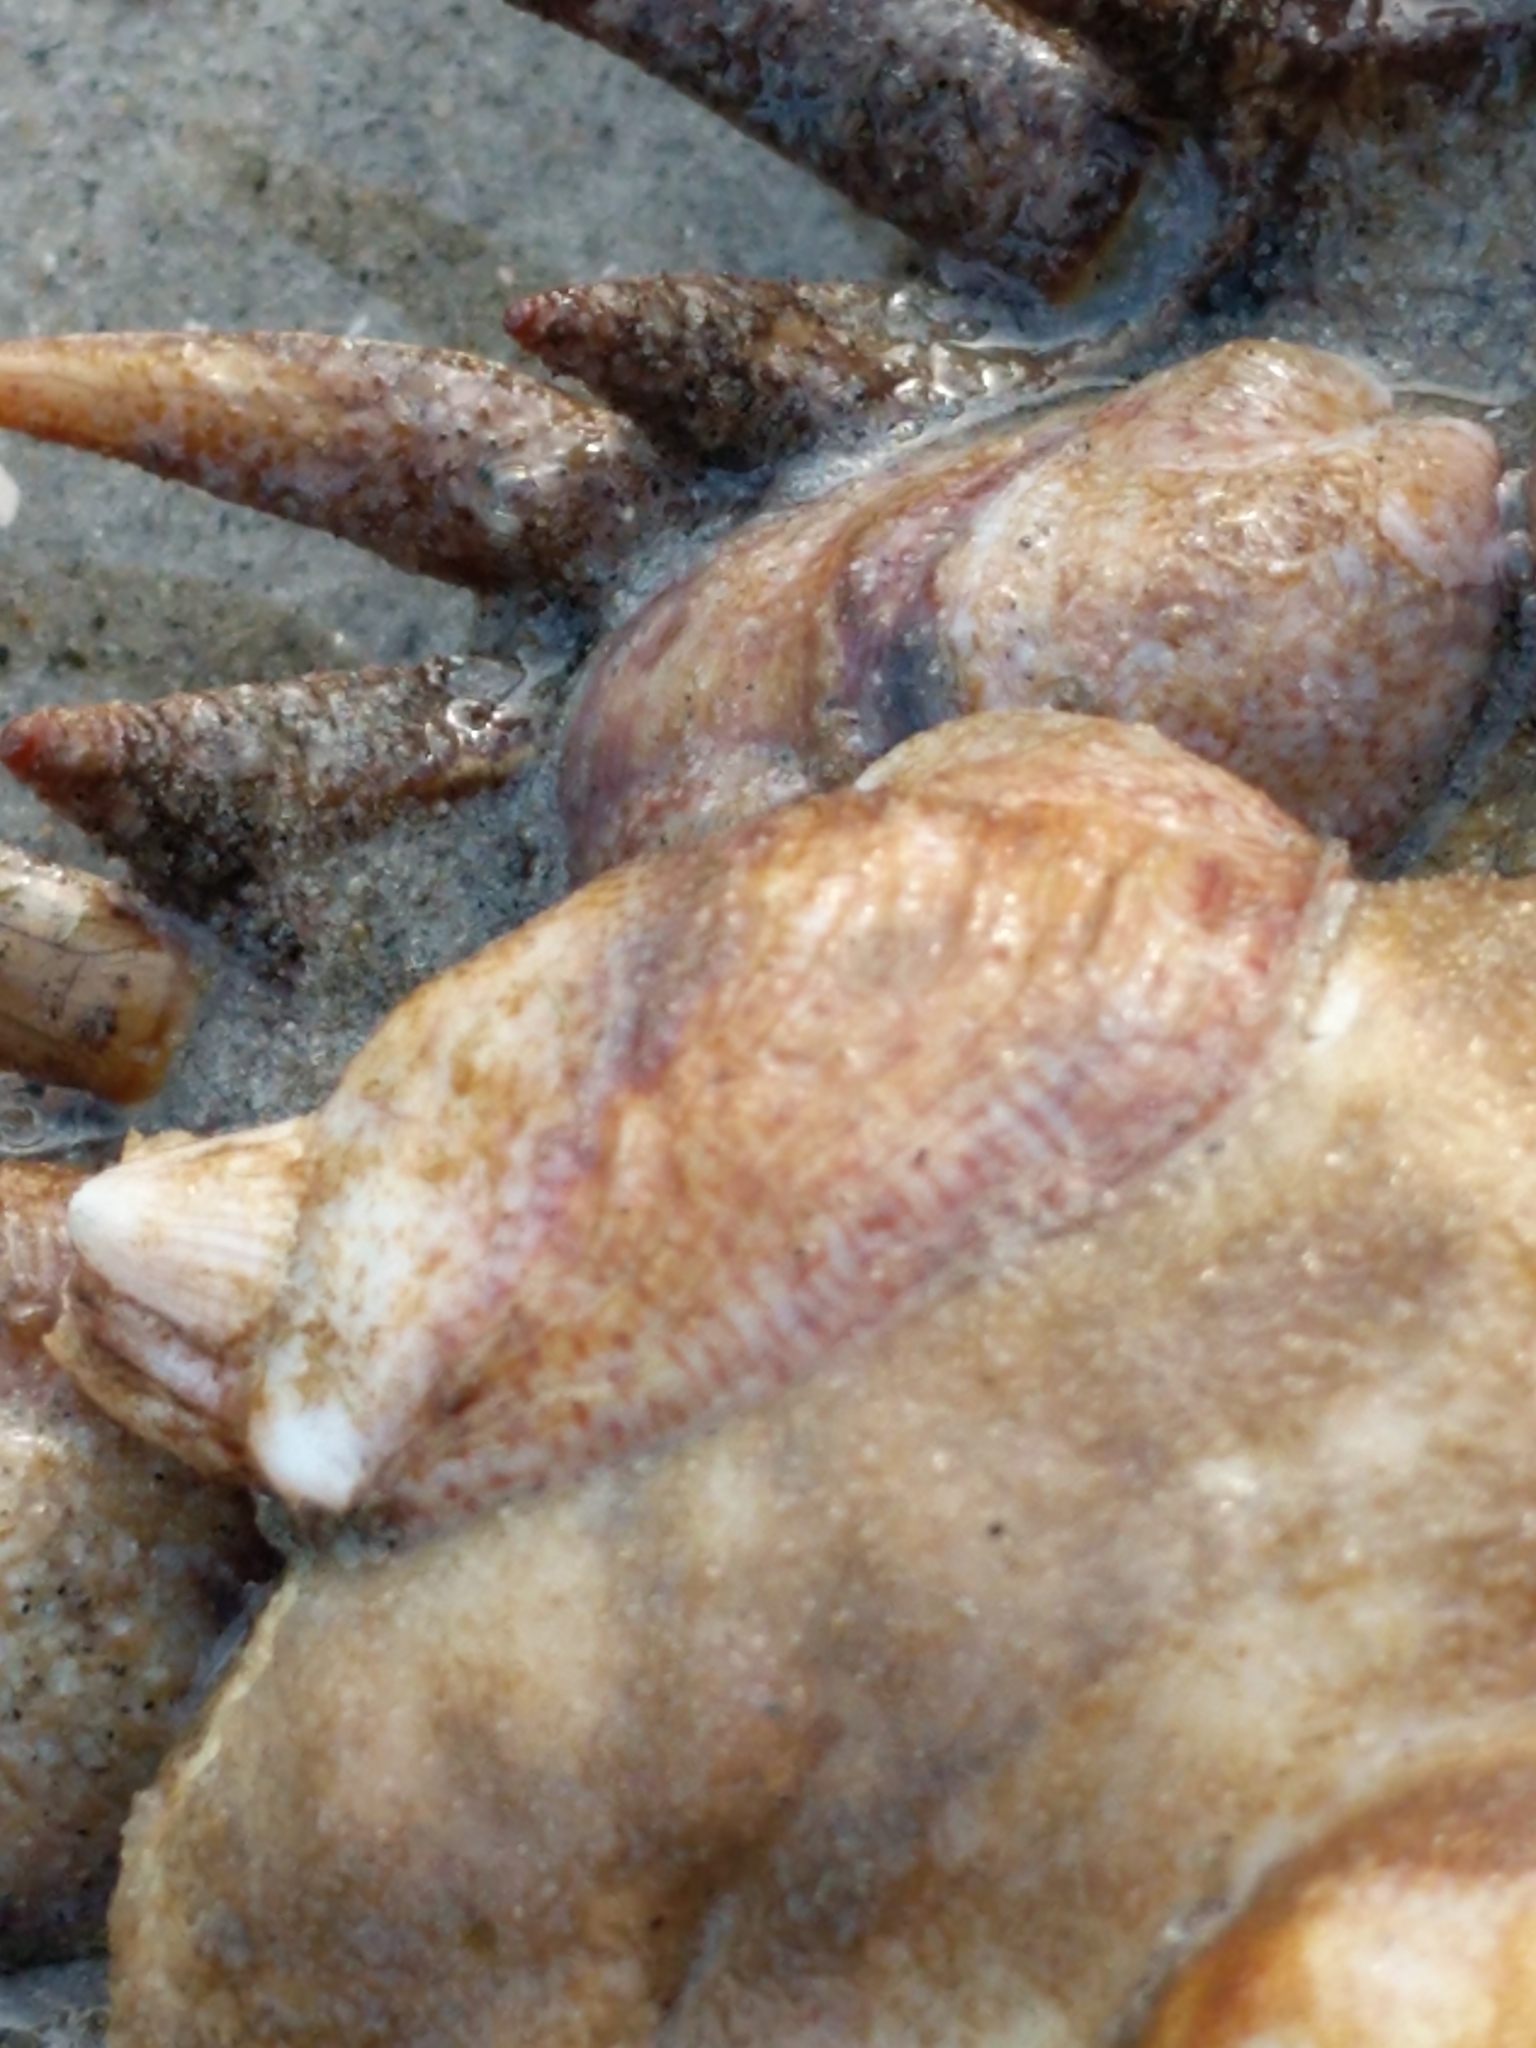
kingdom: Animalia
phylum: Mollusca
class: Gastropoda
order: Littorinimorpha
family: Calyptraeidae
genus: Crepidula
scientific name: Crepidula fornicata
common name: Slipper limpet
